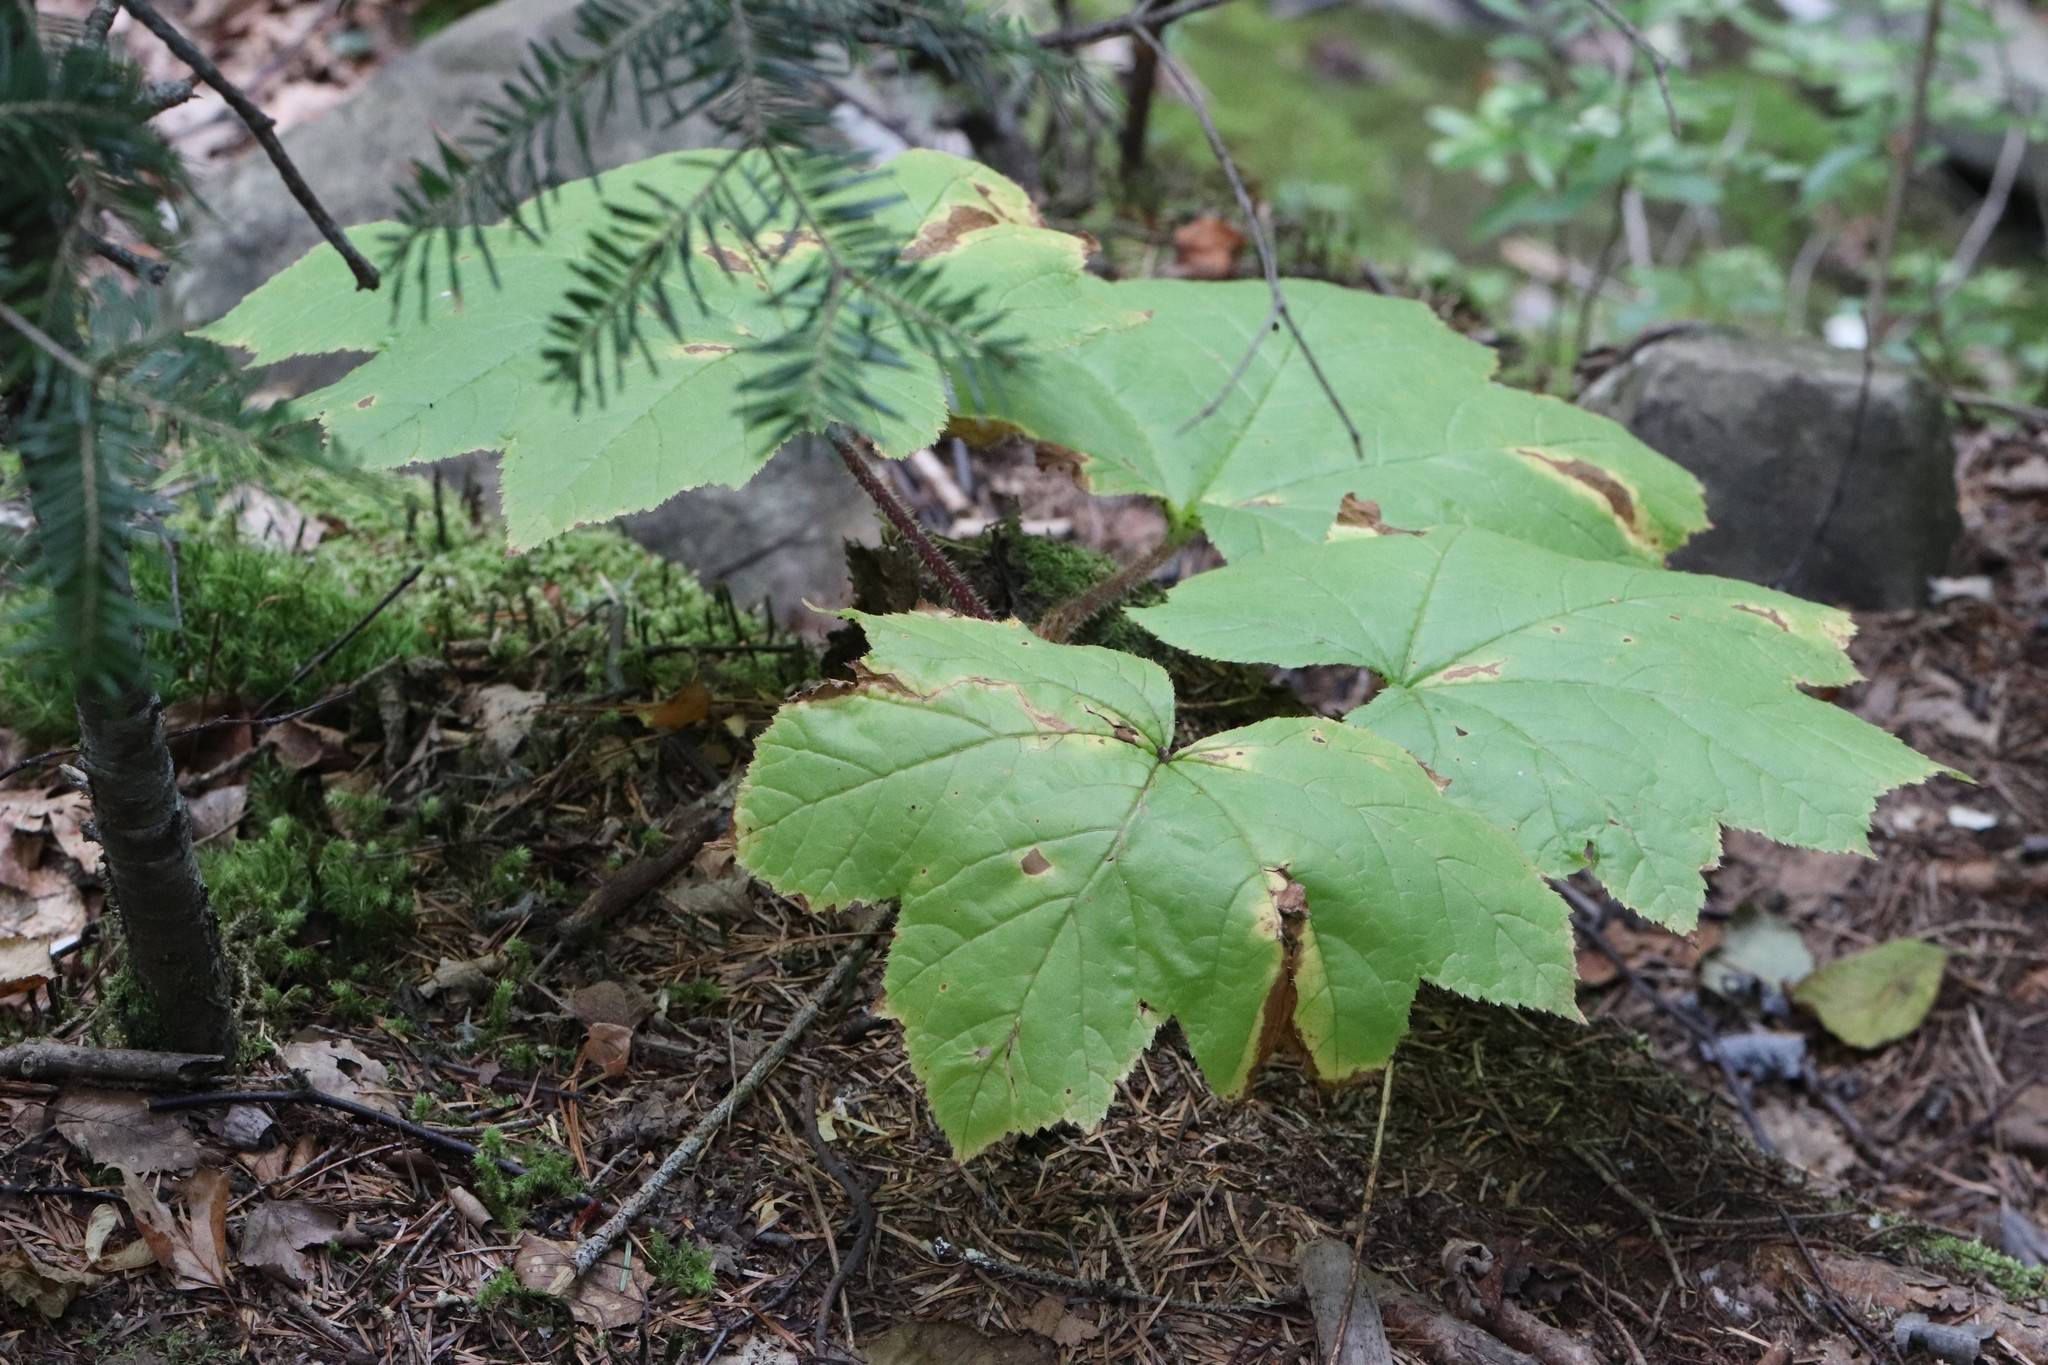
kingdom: Plantae
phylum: Tracheophyta
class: Magnoliopsida
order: Apiales
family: Araliaceae
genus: Oplopanax
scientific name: Oplopanax elatus
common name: Japanese devil's-club
